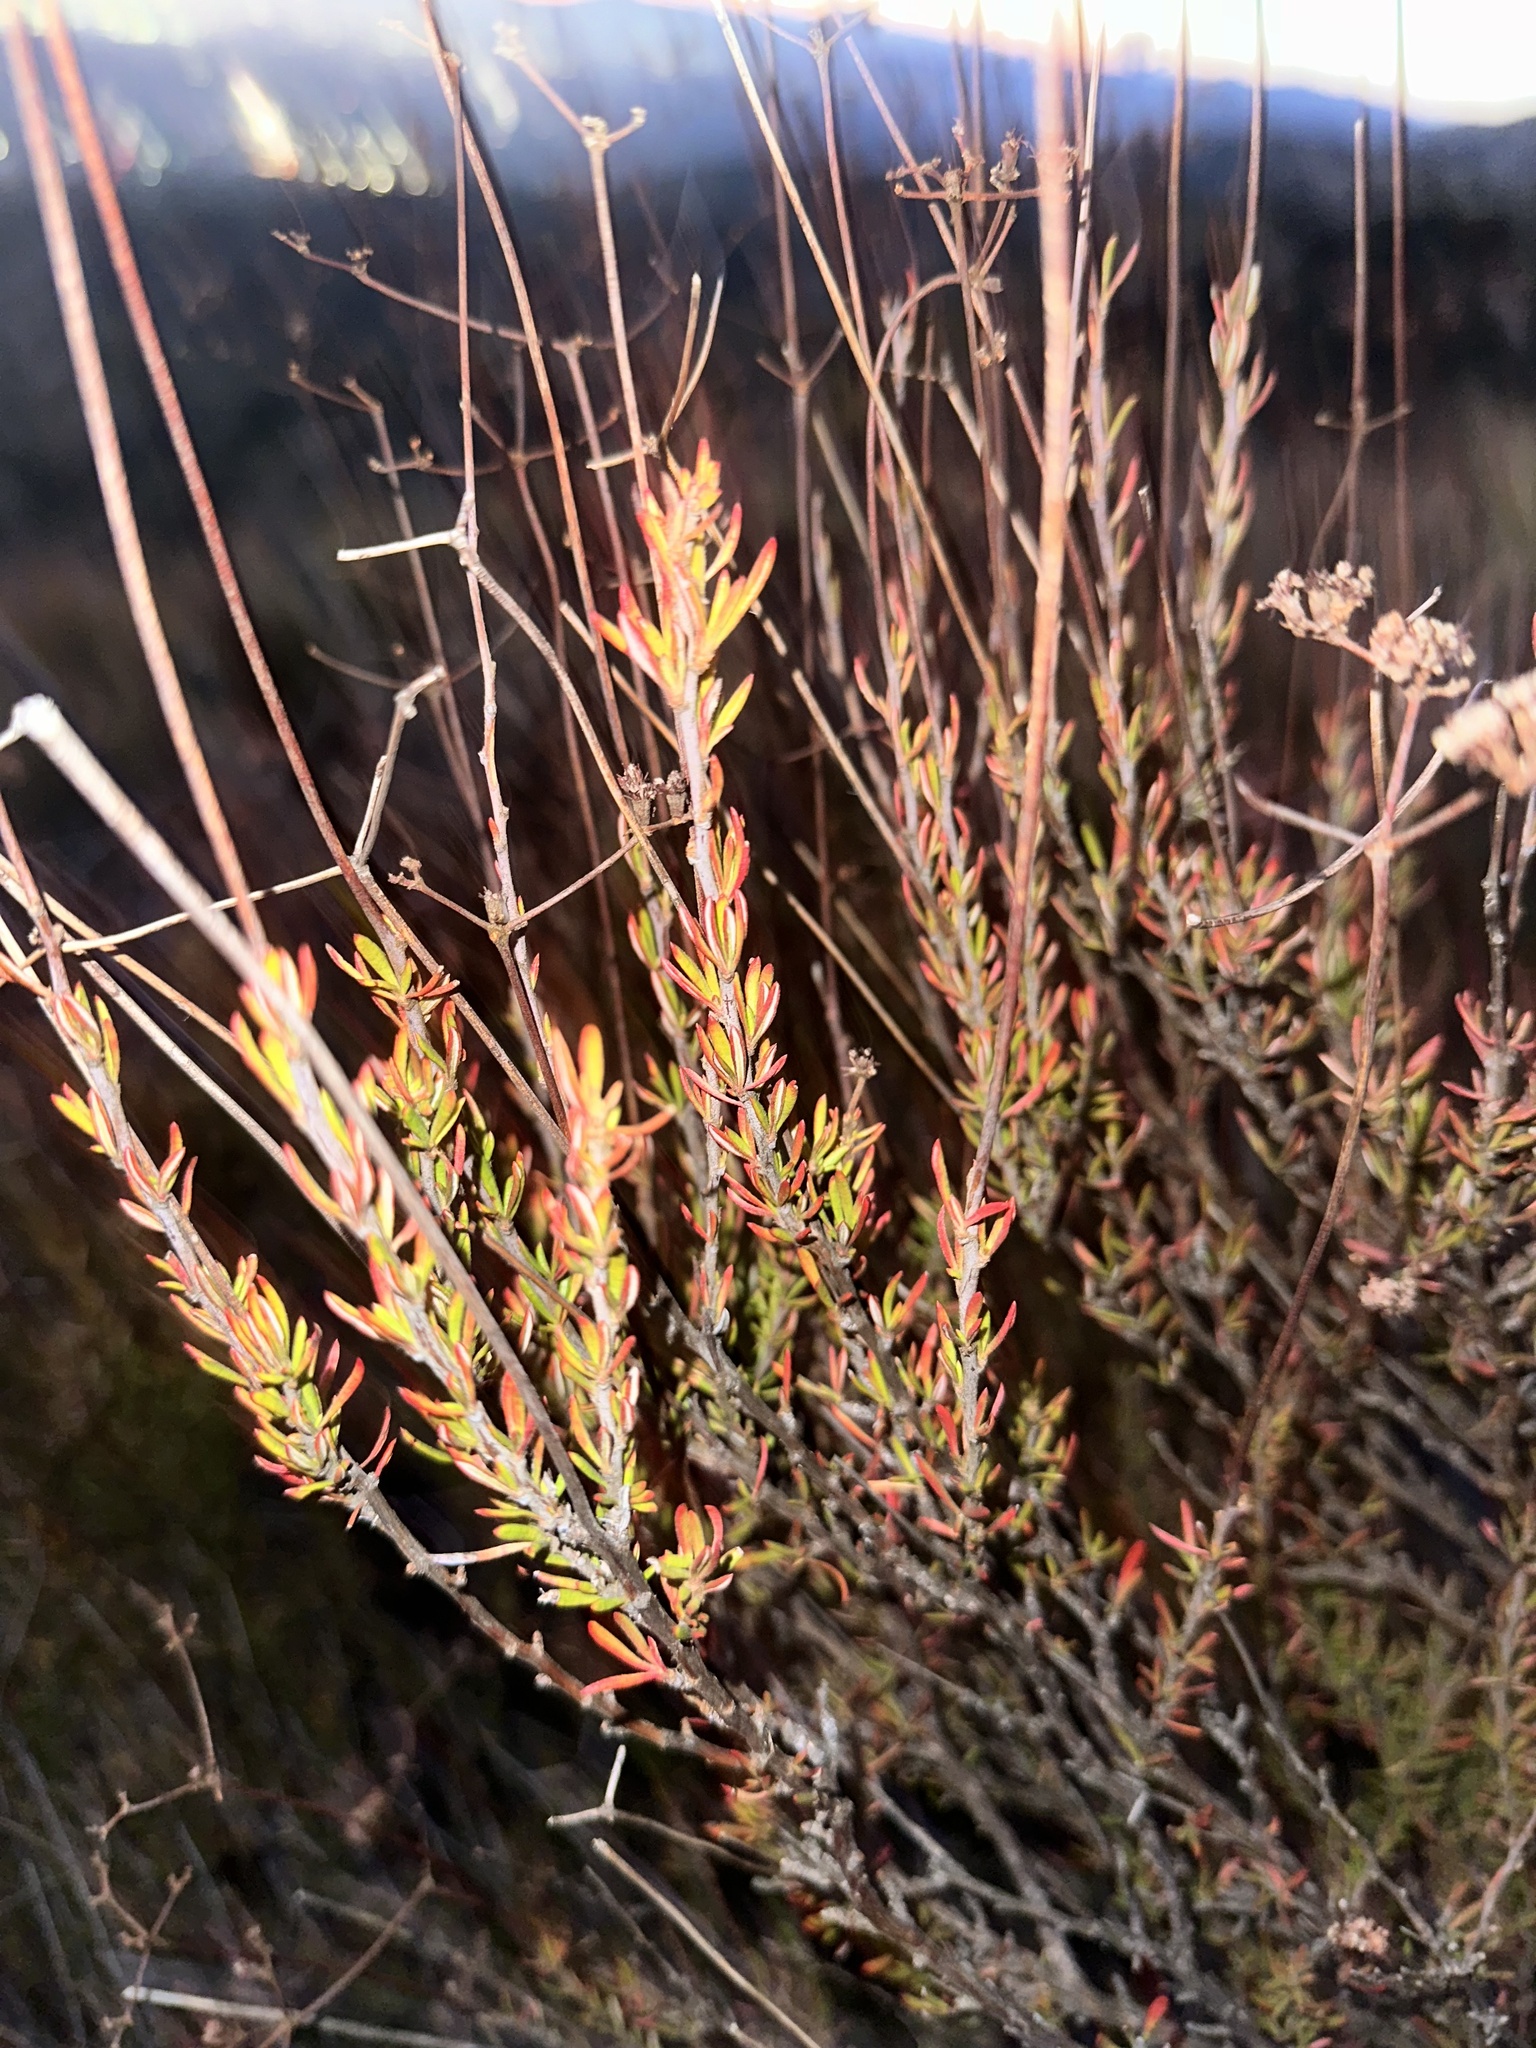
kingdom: Plantae
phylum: Tracheophyta
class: Magnoliopsida
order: Caryophyllales
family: Polygonaceae
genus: Eriogonum
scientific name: Eriogonum fasciculatum
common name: California wild buckwheat
